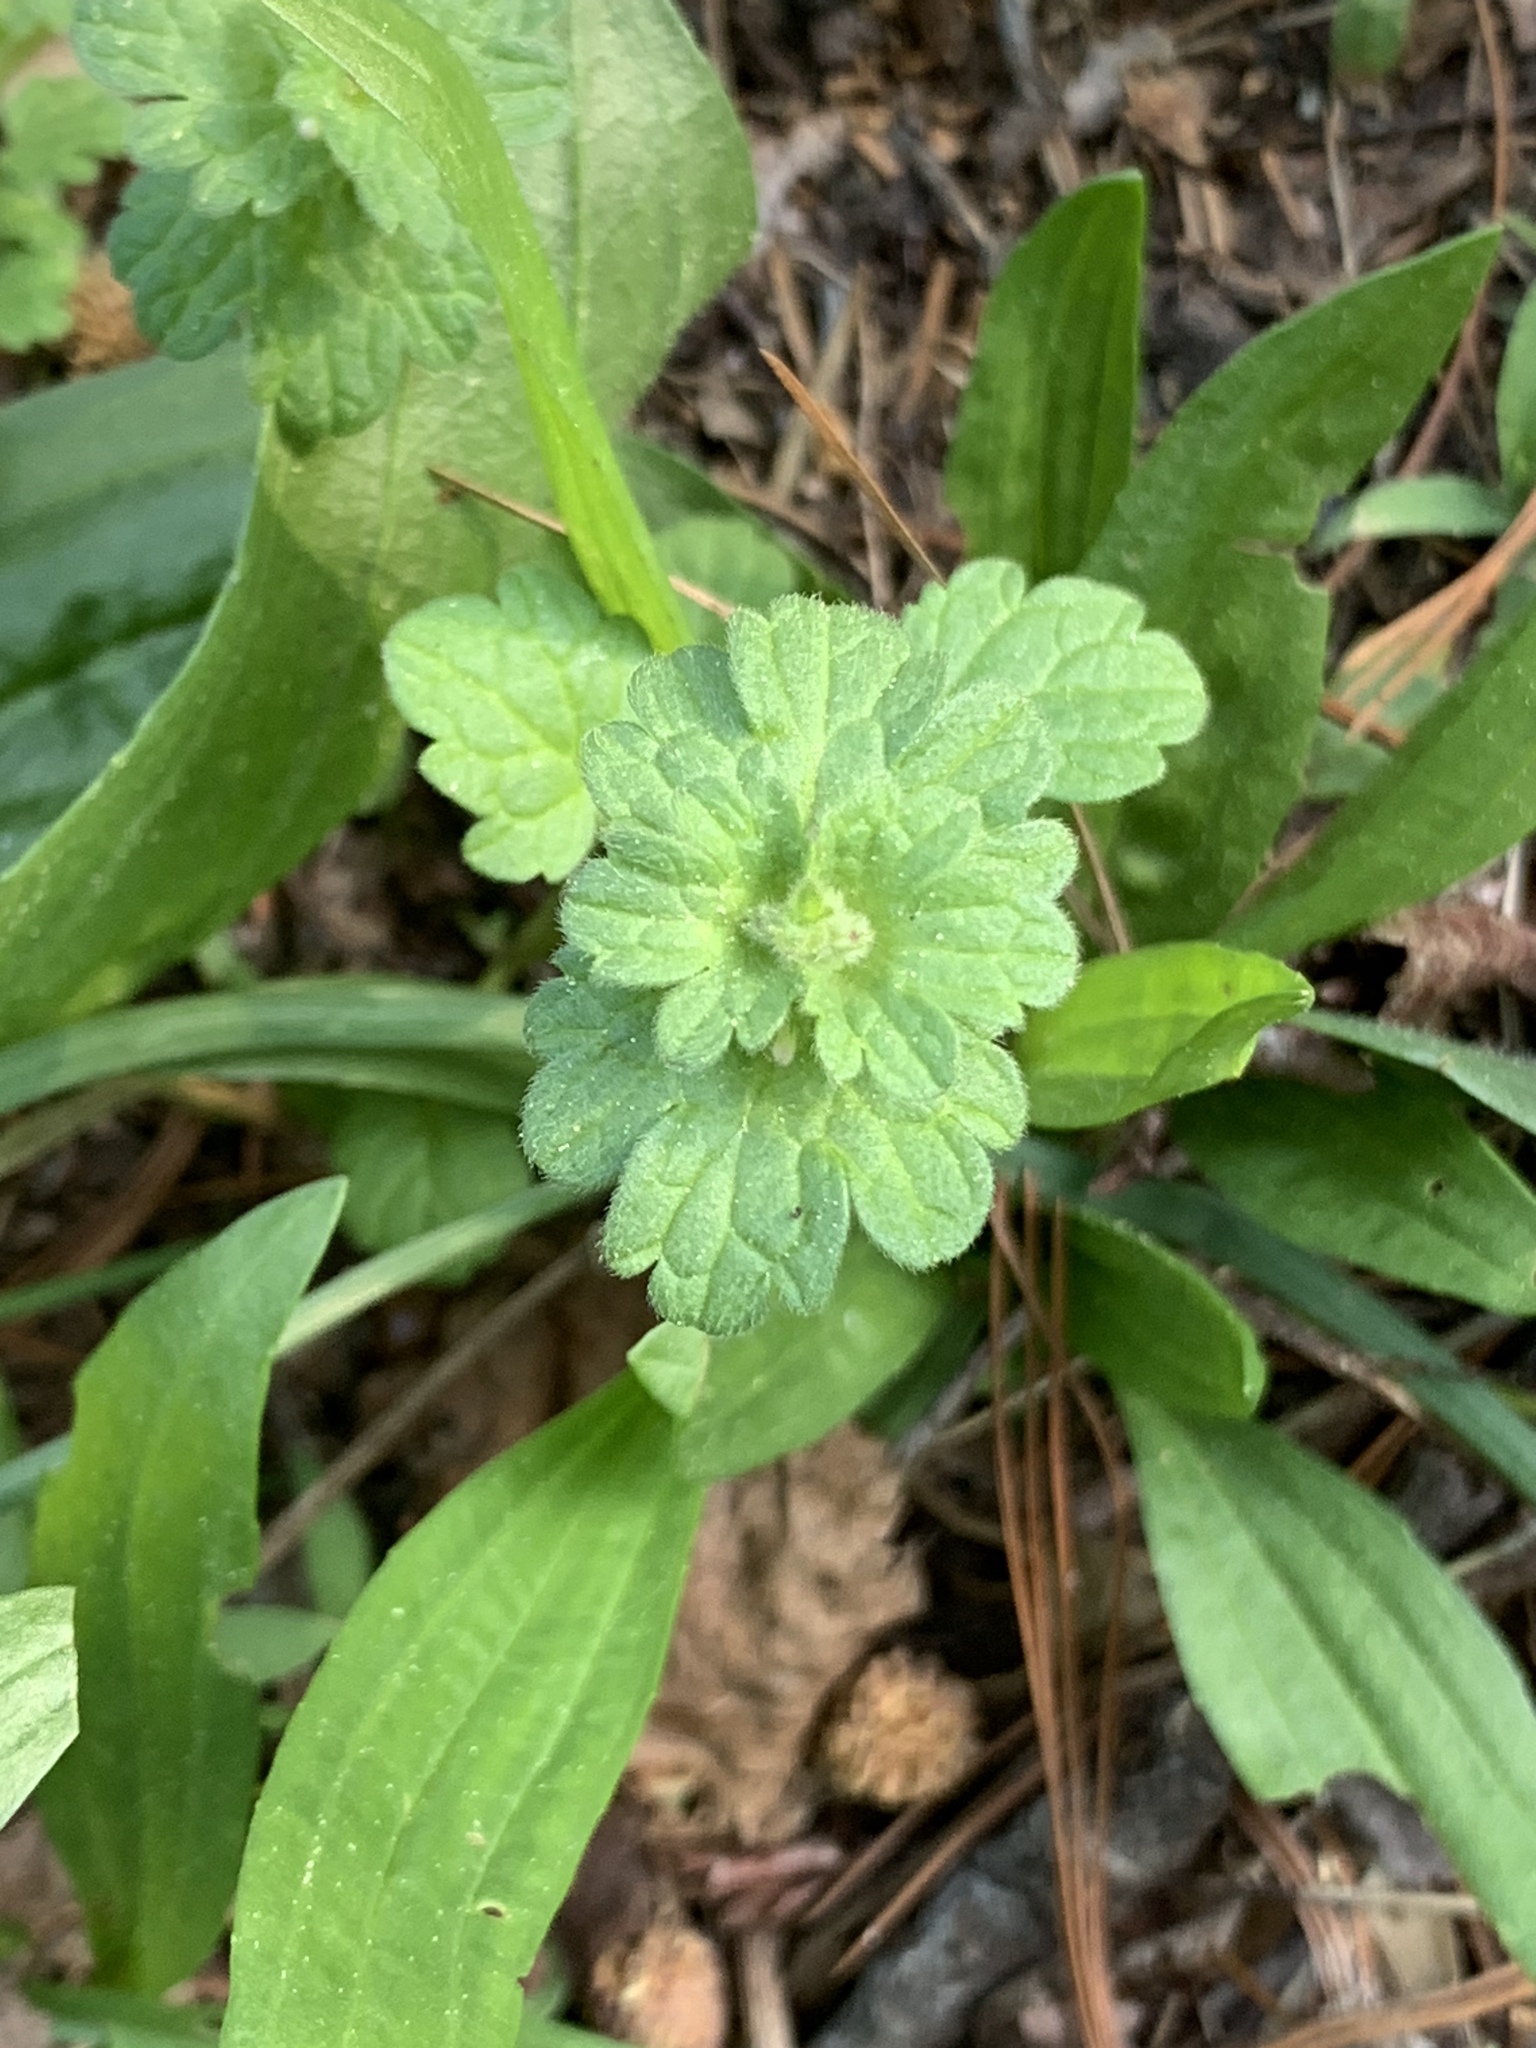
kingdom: Plantae
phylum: Tracheophyta
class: Magnoliopsida
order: Lamiales
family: Lamiaceae
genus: Lamium
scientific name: Lamium amplexicaule
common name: Henbit dead-nettle
